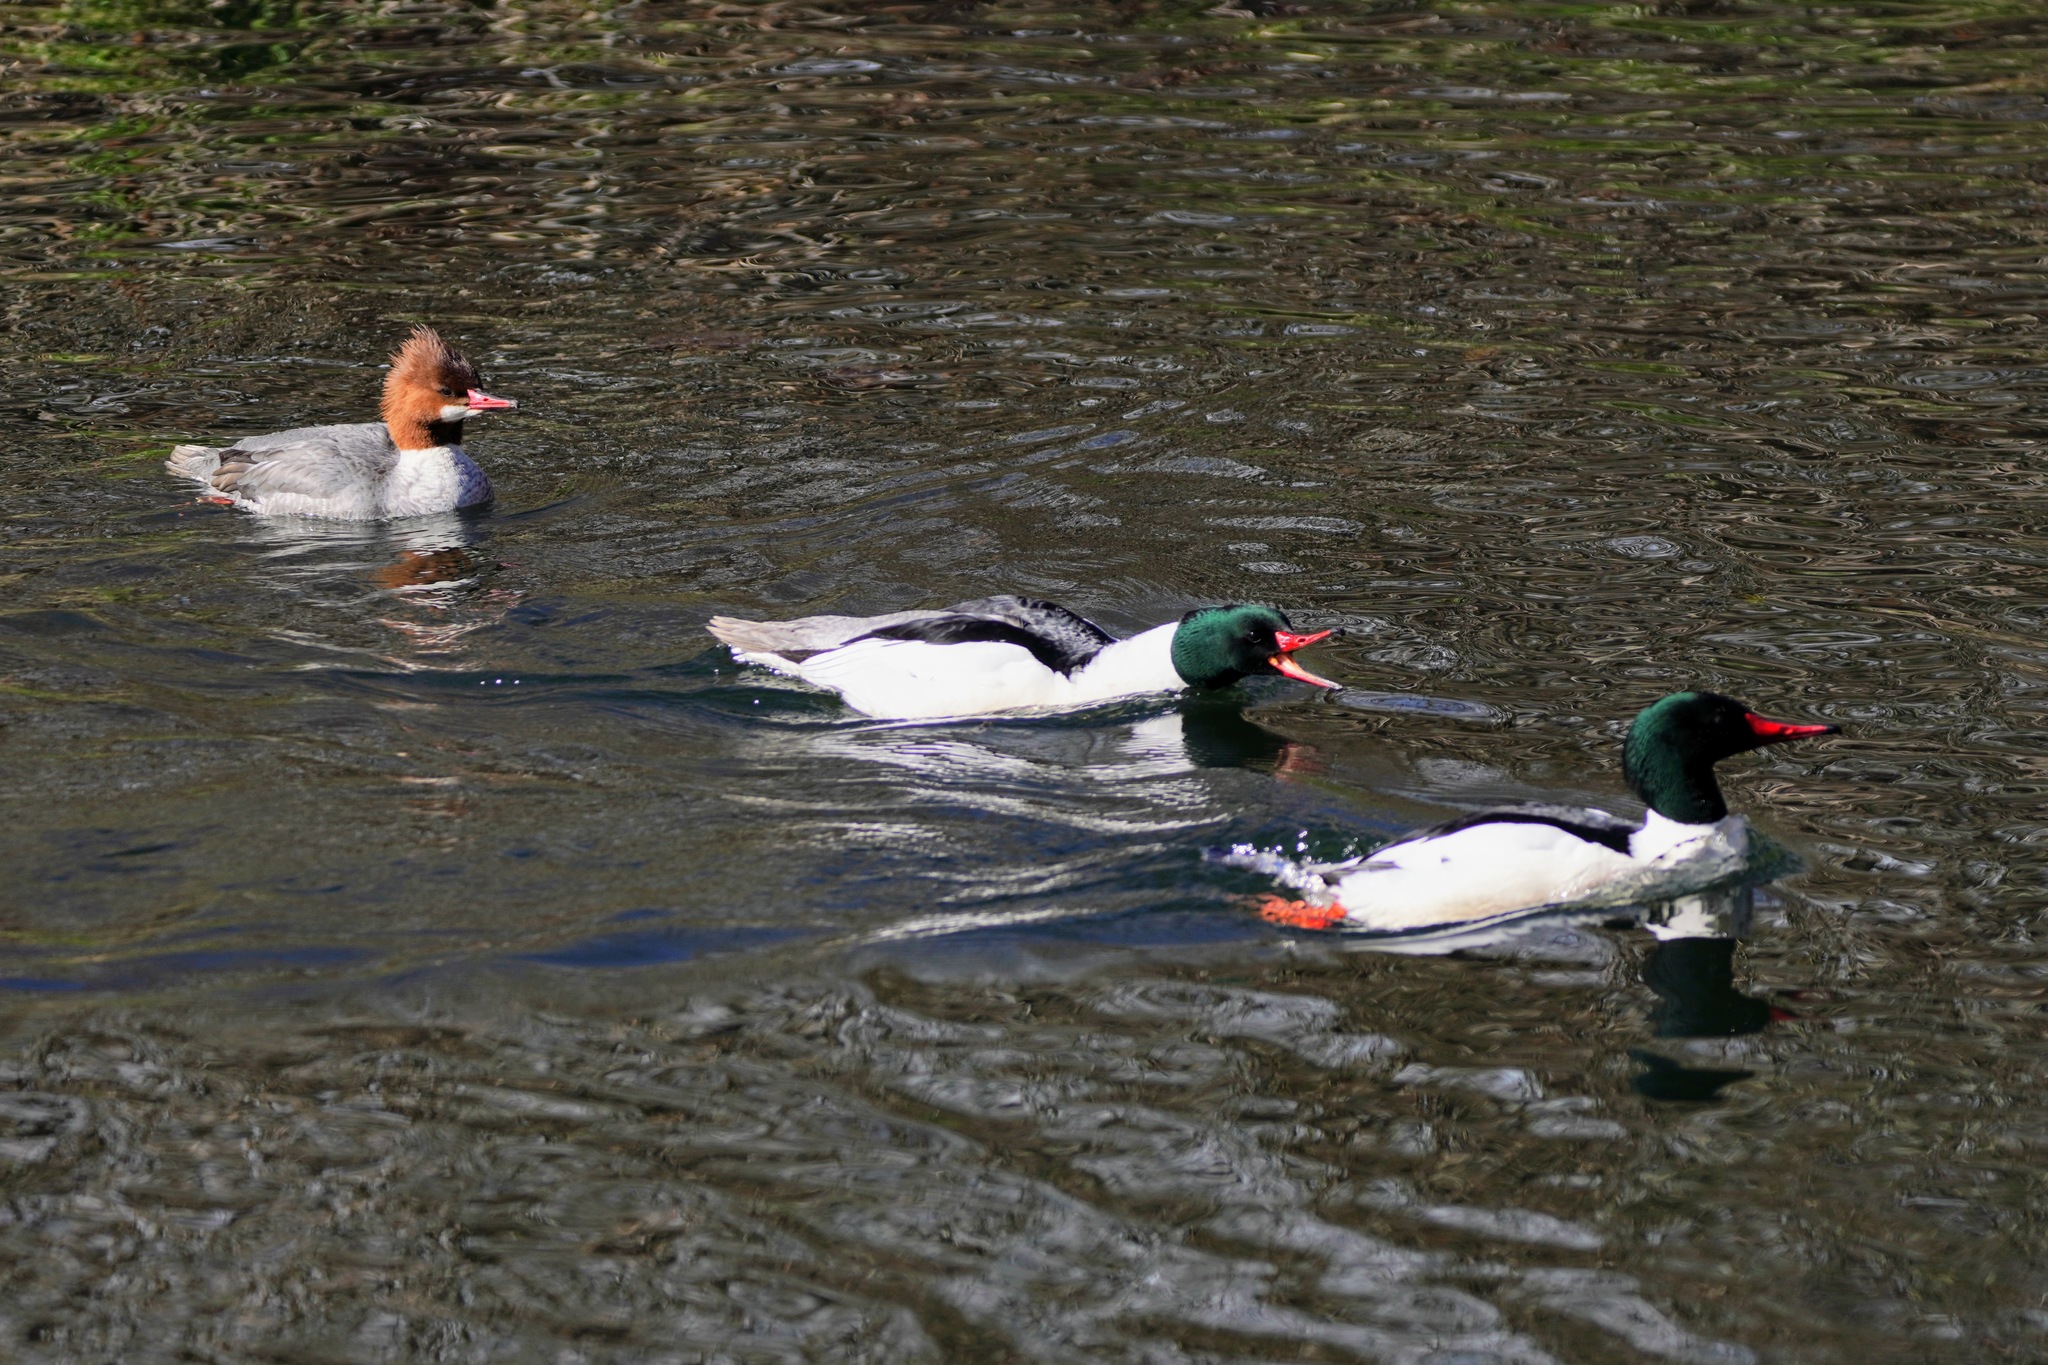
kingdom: Animalia
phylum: Chordata
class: Aves
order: Anseriformes
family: Anatidae
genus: Mergus
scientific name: Mergus merganser
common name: Common merganser
